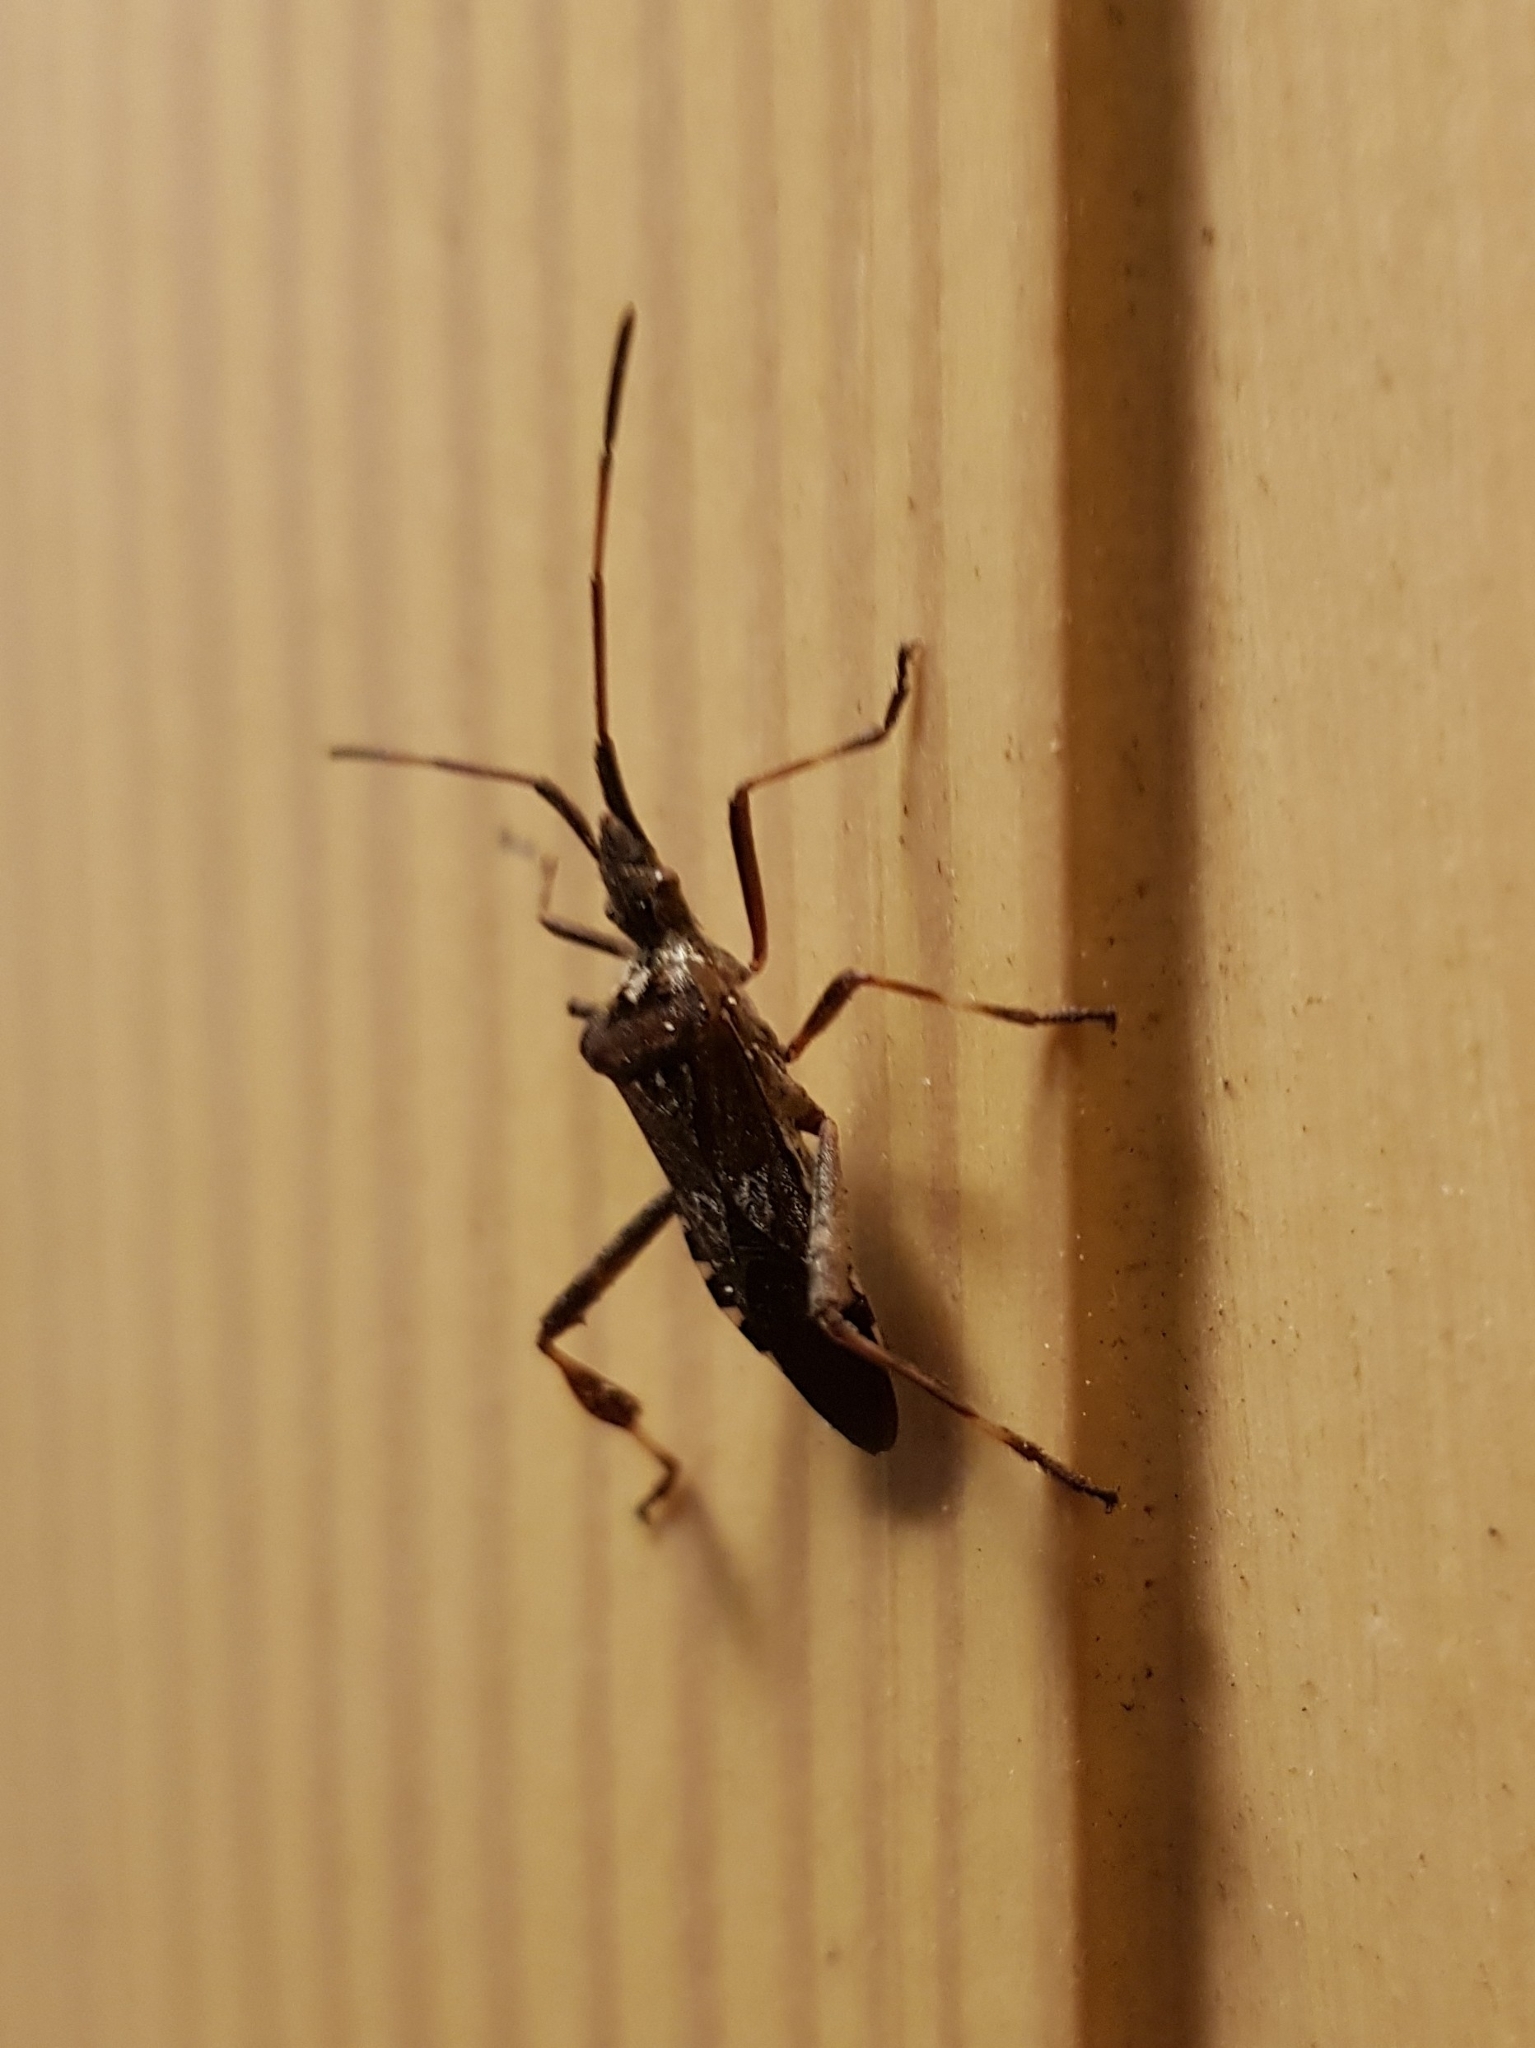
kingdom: Animalia
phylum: Arthropoda
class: Insecta
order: Hemiptera
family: Coreidae
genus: Leptoglossus
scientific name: Leptoglossus occidentalis
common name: Western conifer-seed bug
